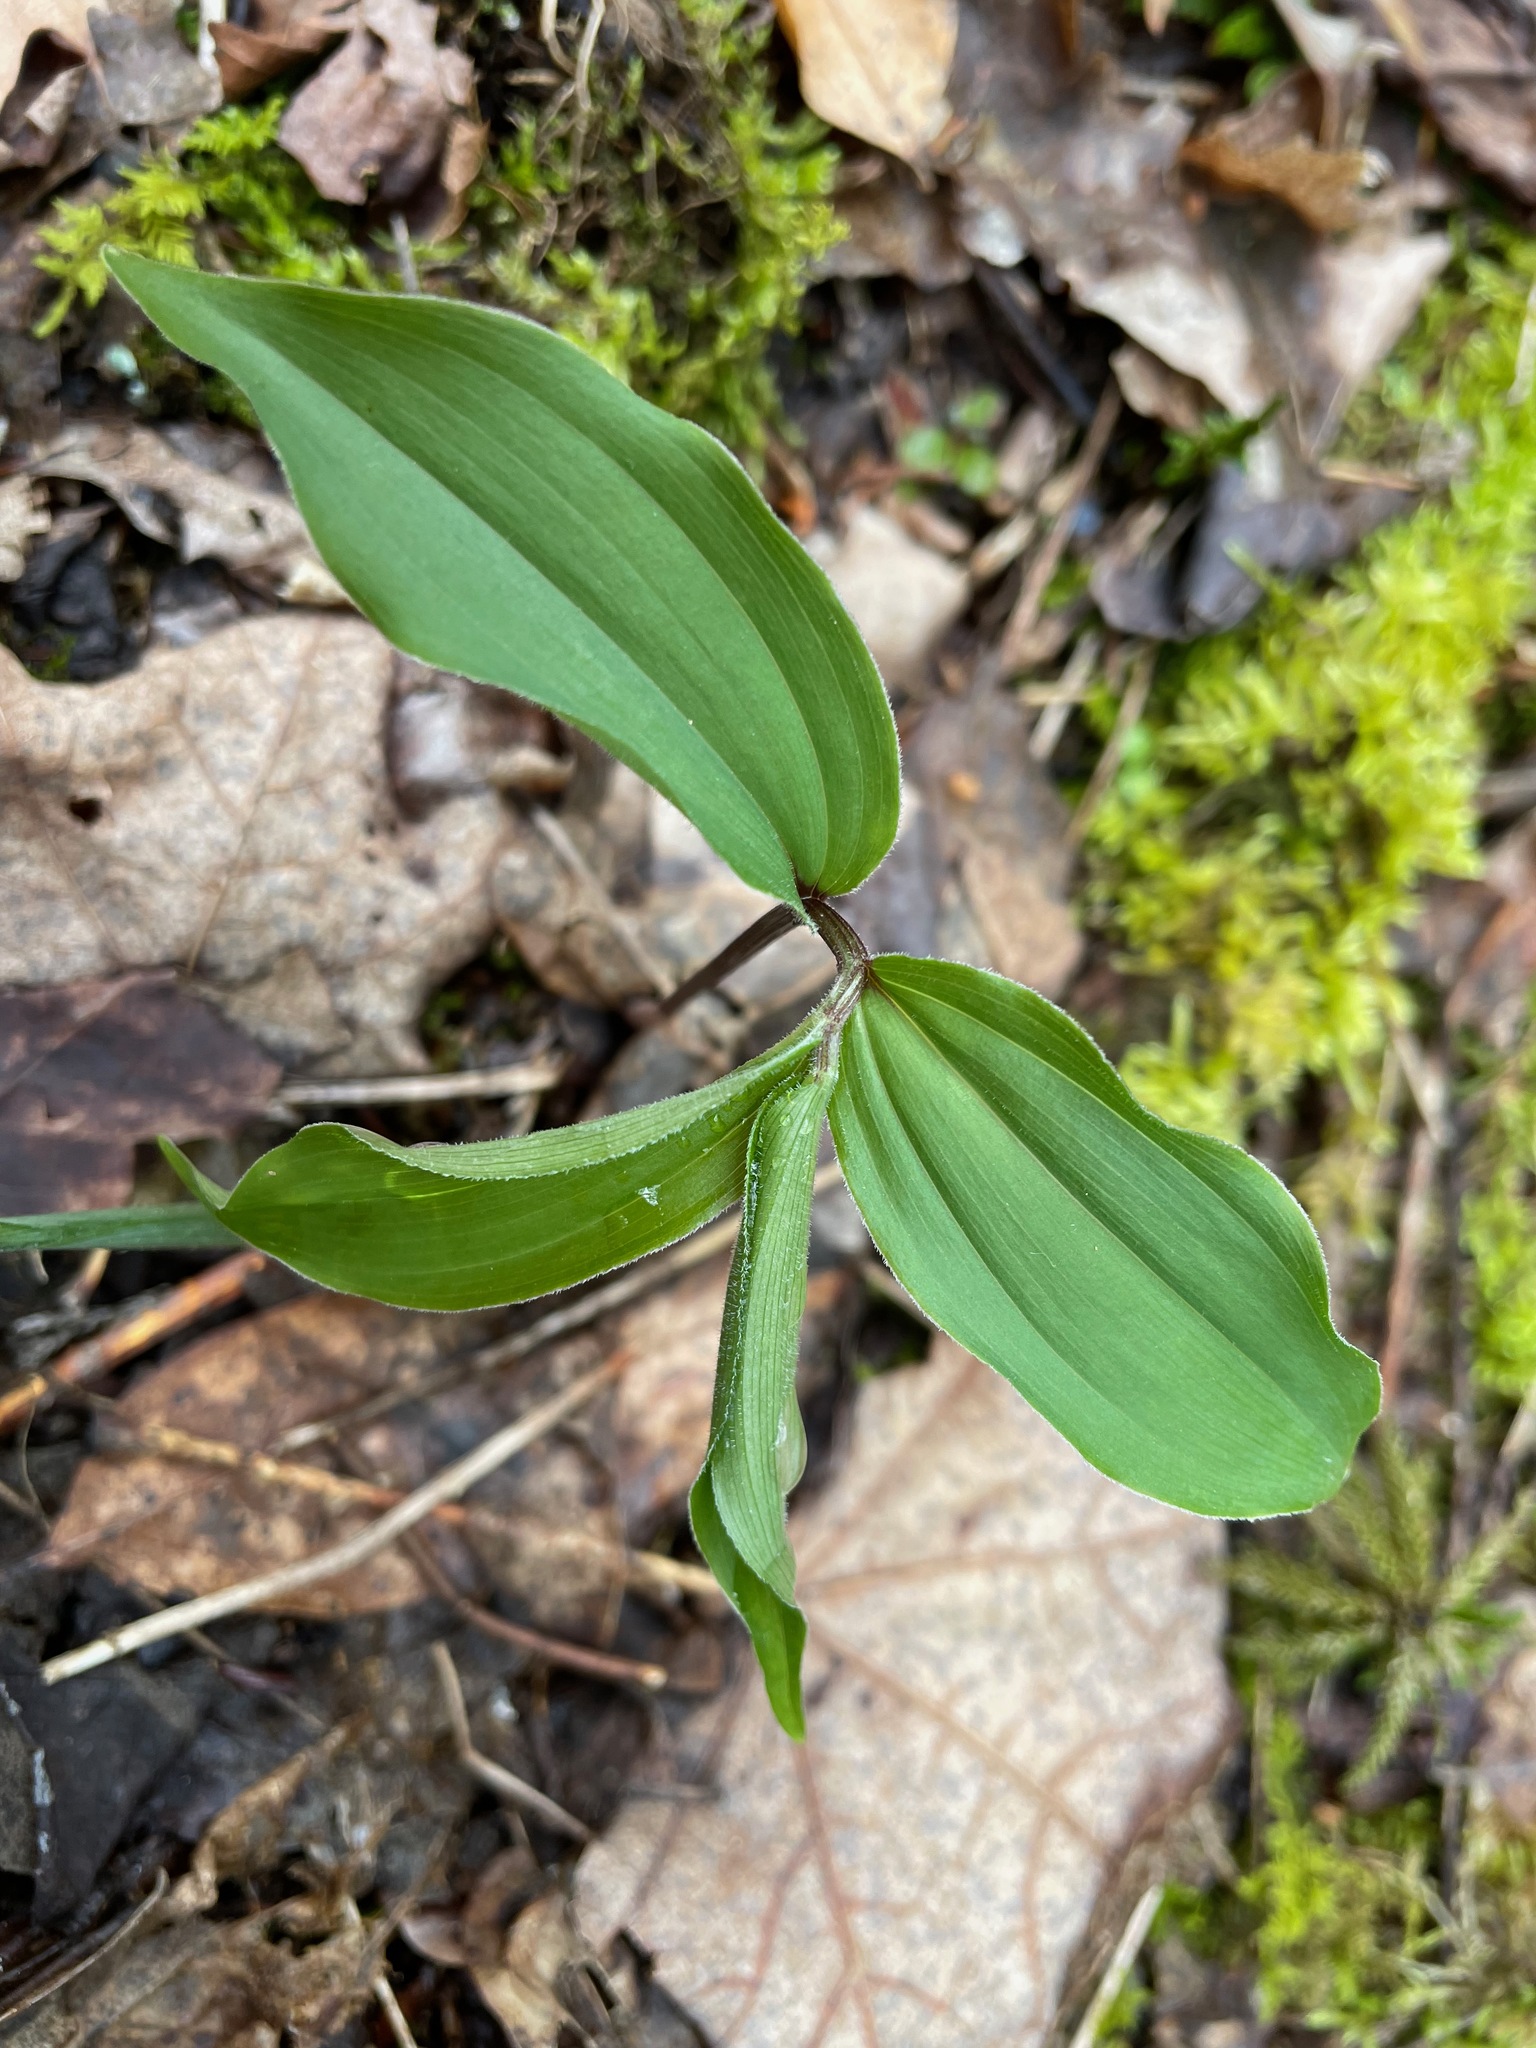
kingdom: Plantae
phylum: Tracheophyta
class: Liliopsida
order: Asparagales
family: Asparagaceae
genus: Maianthemum
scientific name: Maianthemum racemosum
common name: False spikenard
